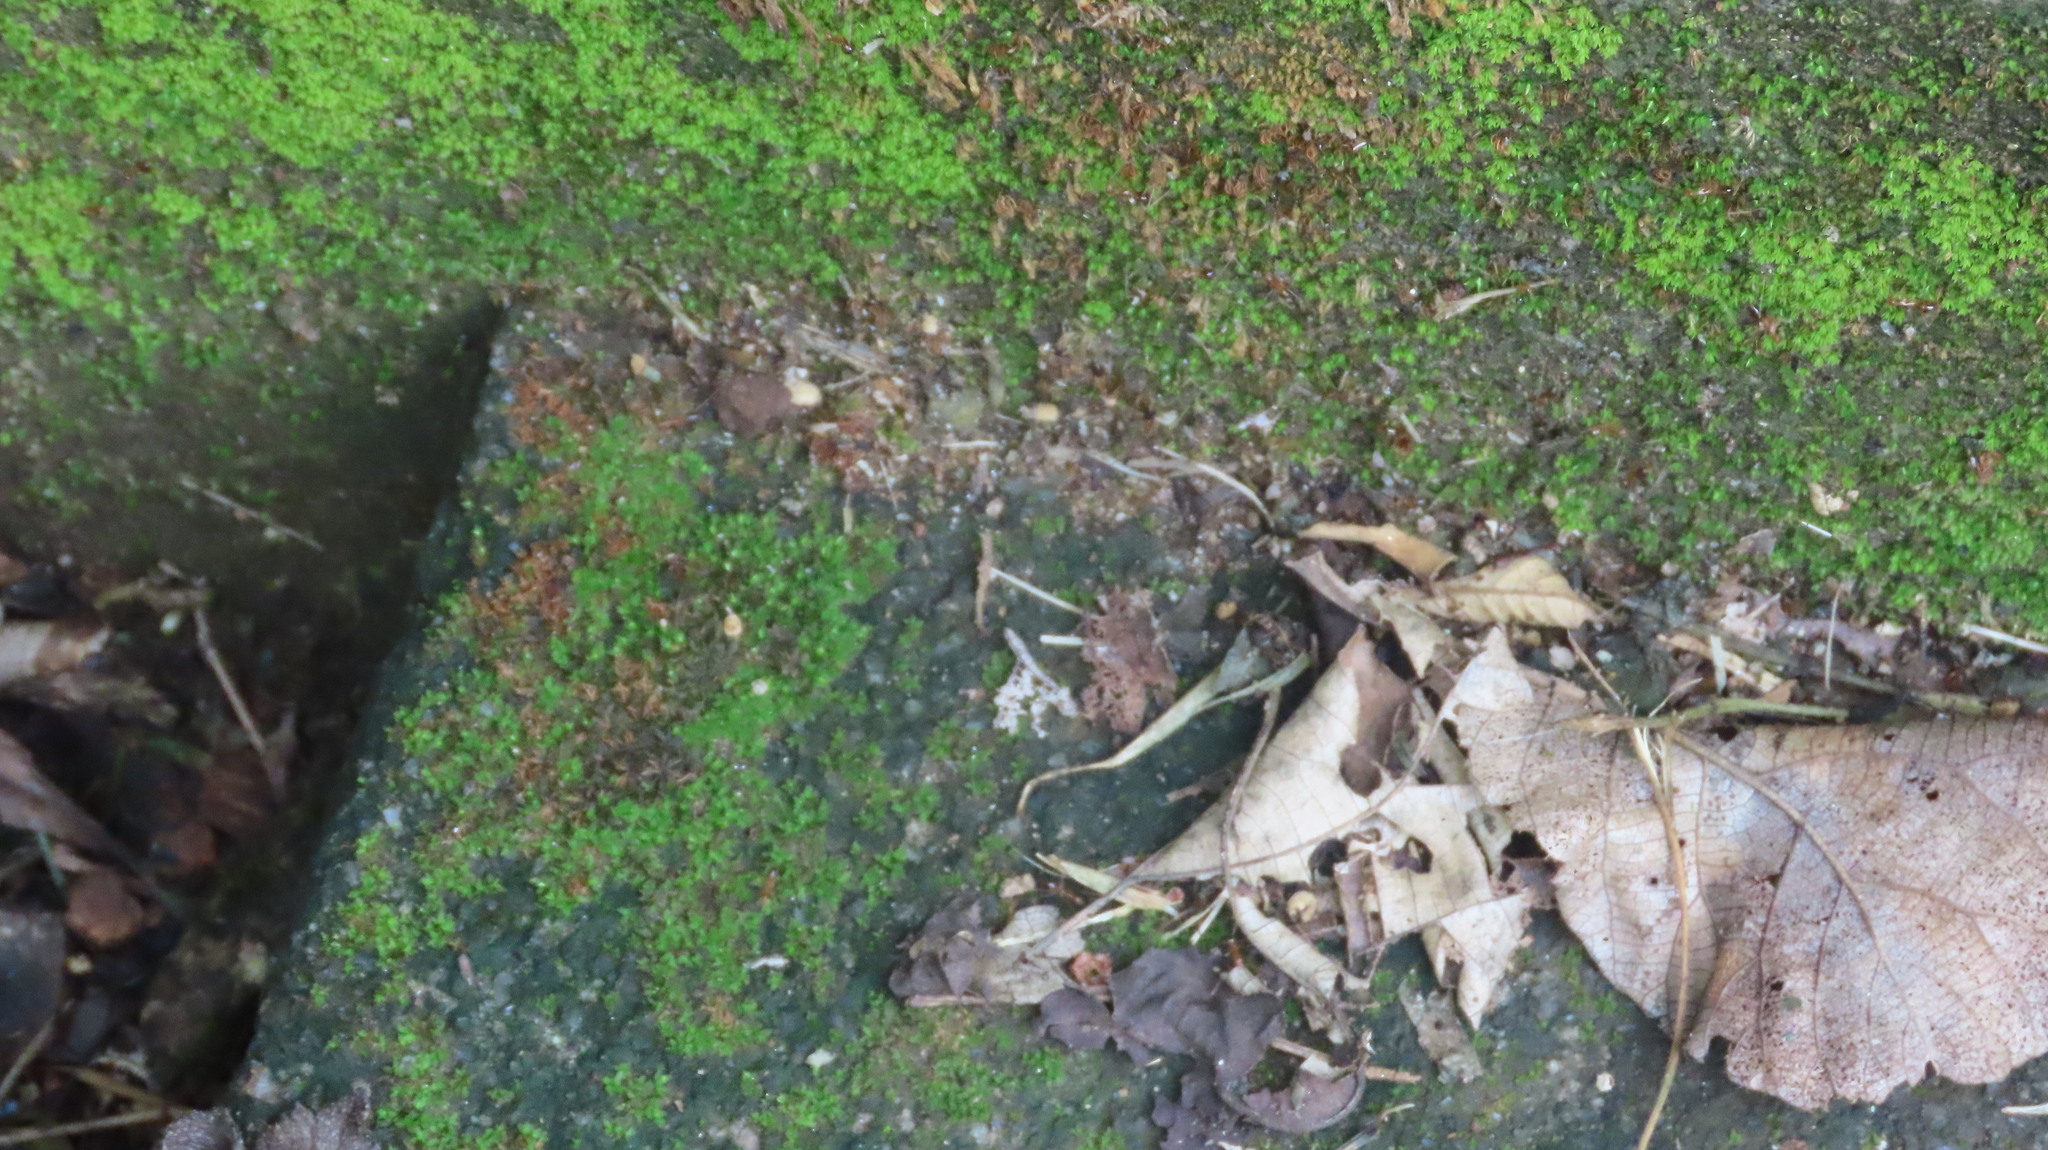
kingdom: Animalia
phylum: Arthropoda
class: Insecta
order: Hymenoptera
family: Formicidae
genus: Anoplolepis
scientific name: Anoplolepis gracilipes
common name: Ant
